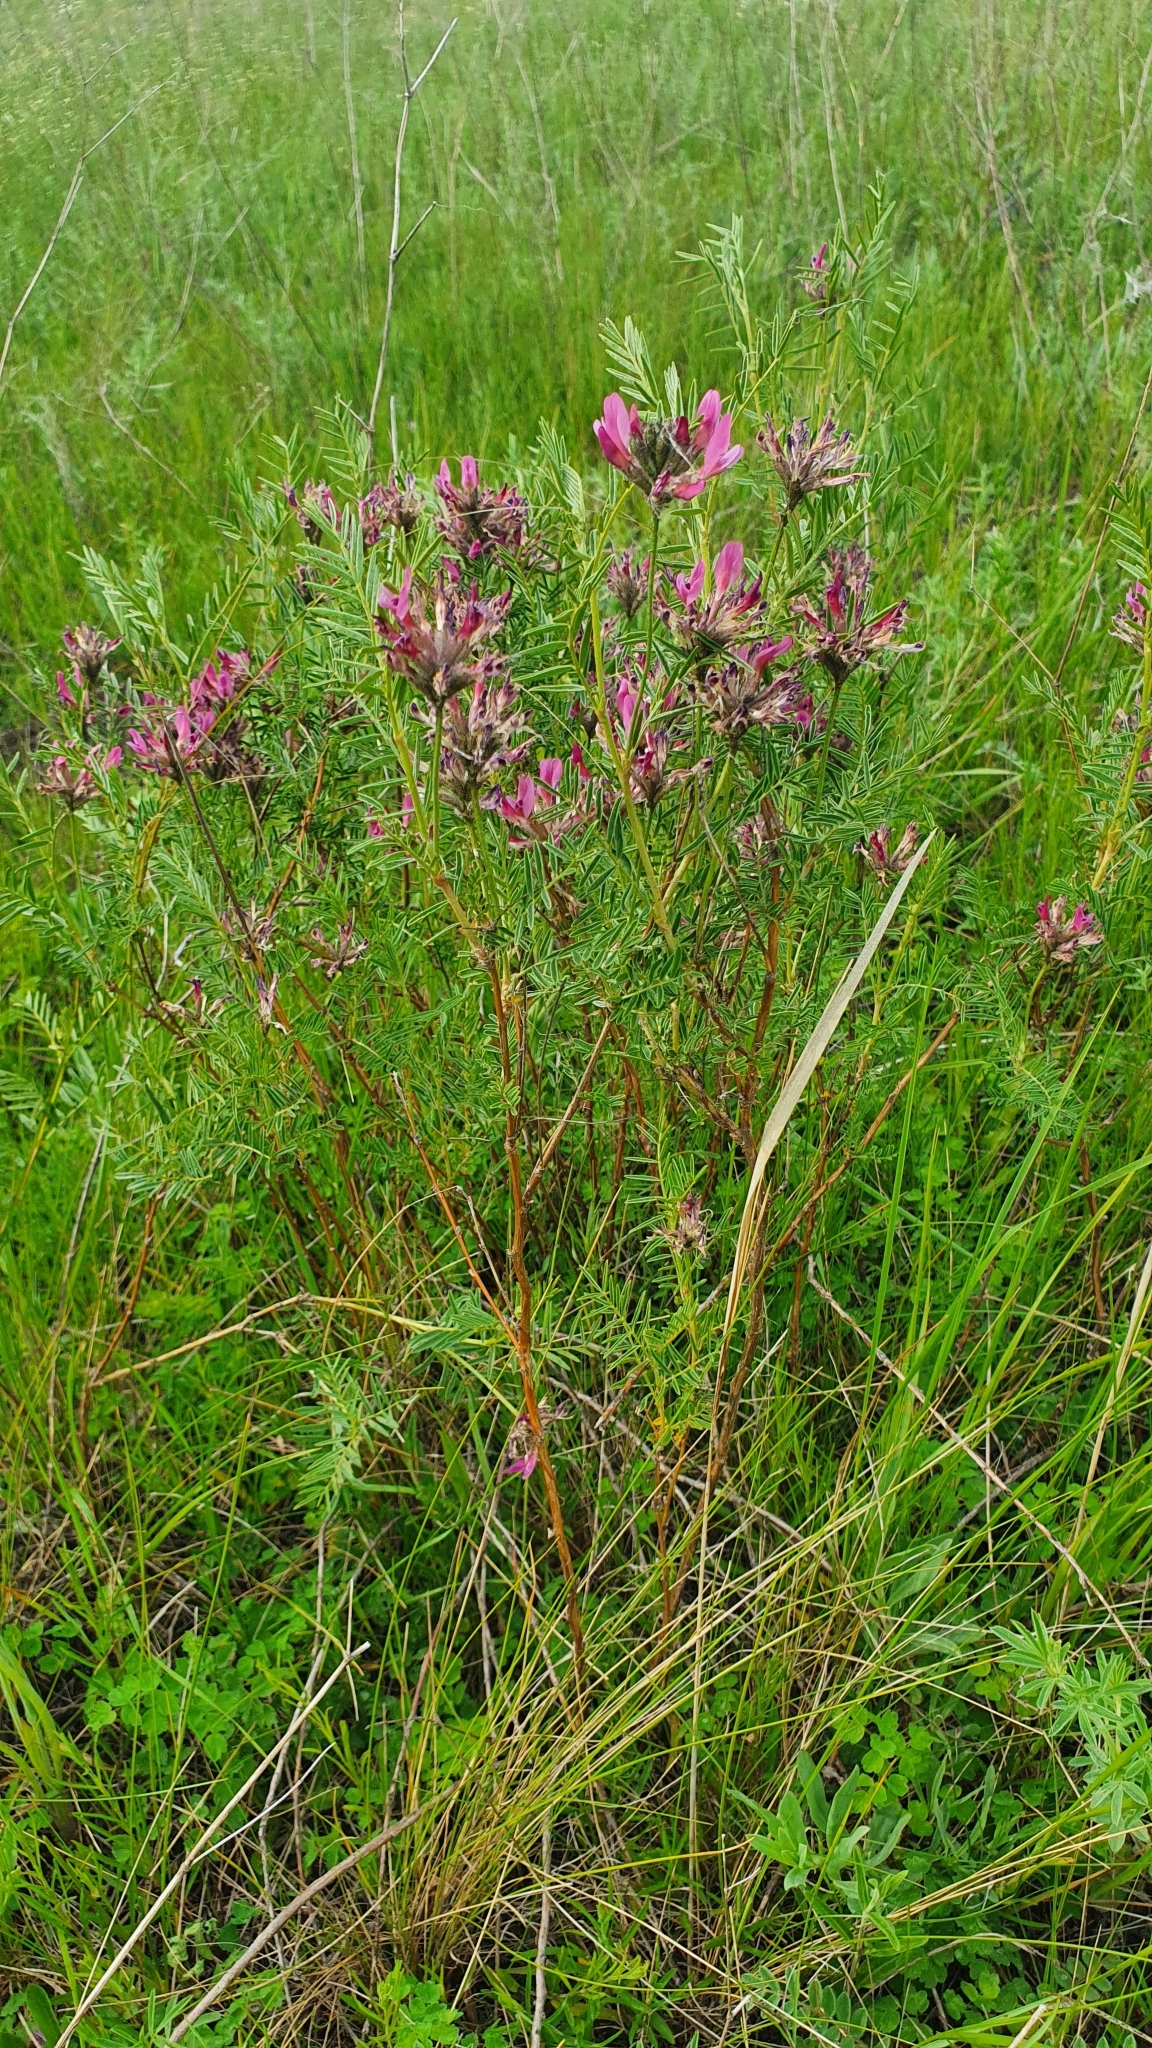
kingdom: Plantae
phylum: Tracheophyta
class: Magnoliopsida
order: Fabales
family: Fabaceae
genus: Astragalus
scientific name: Astragalus cornutus
